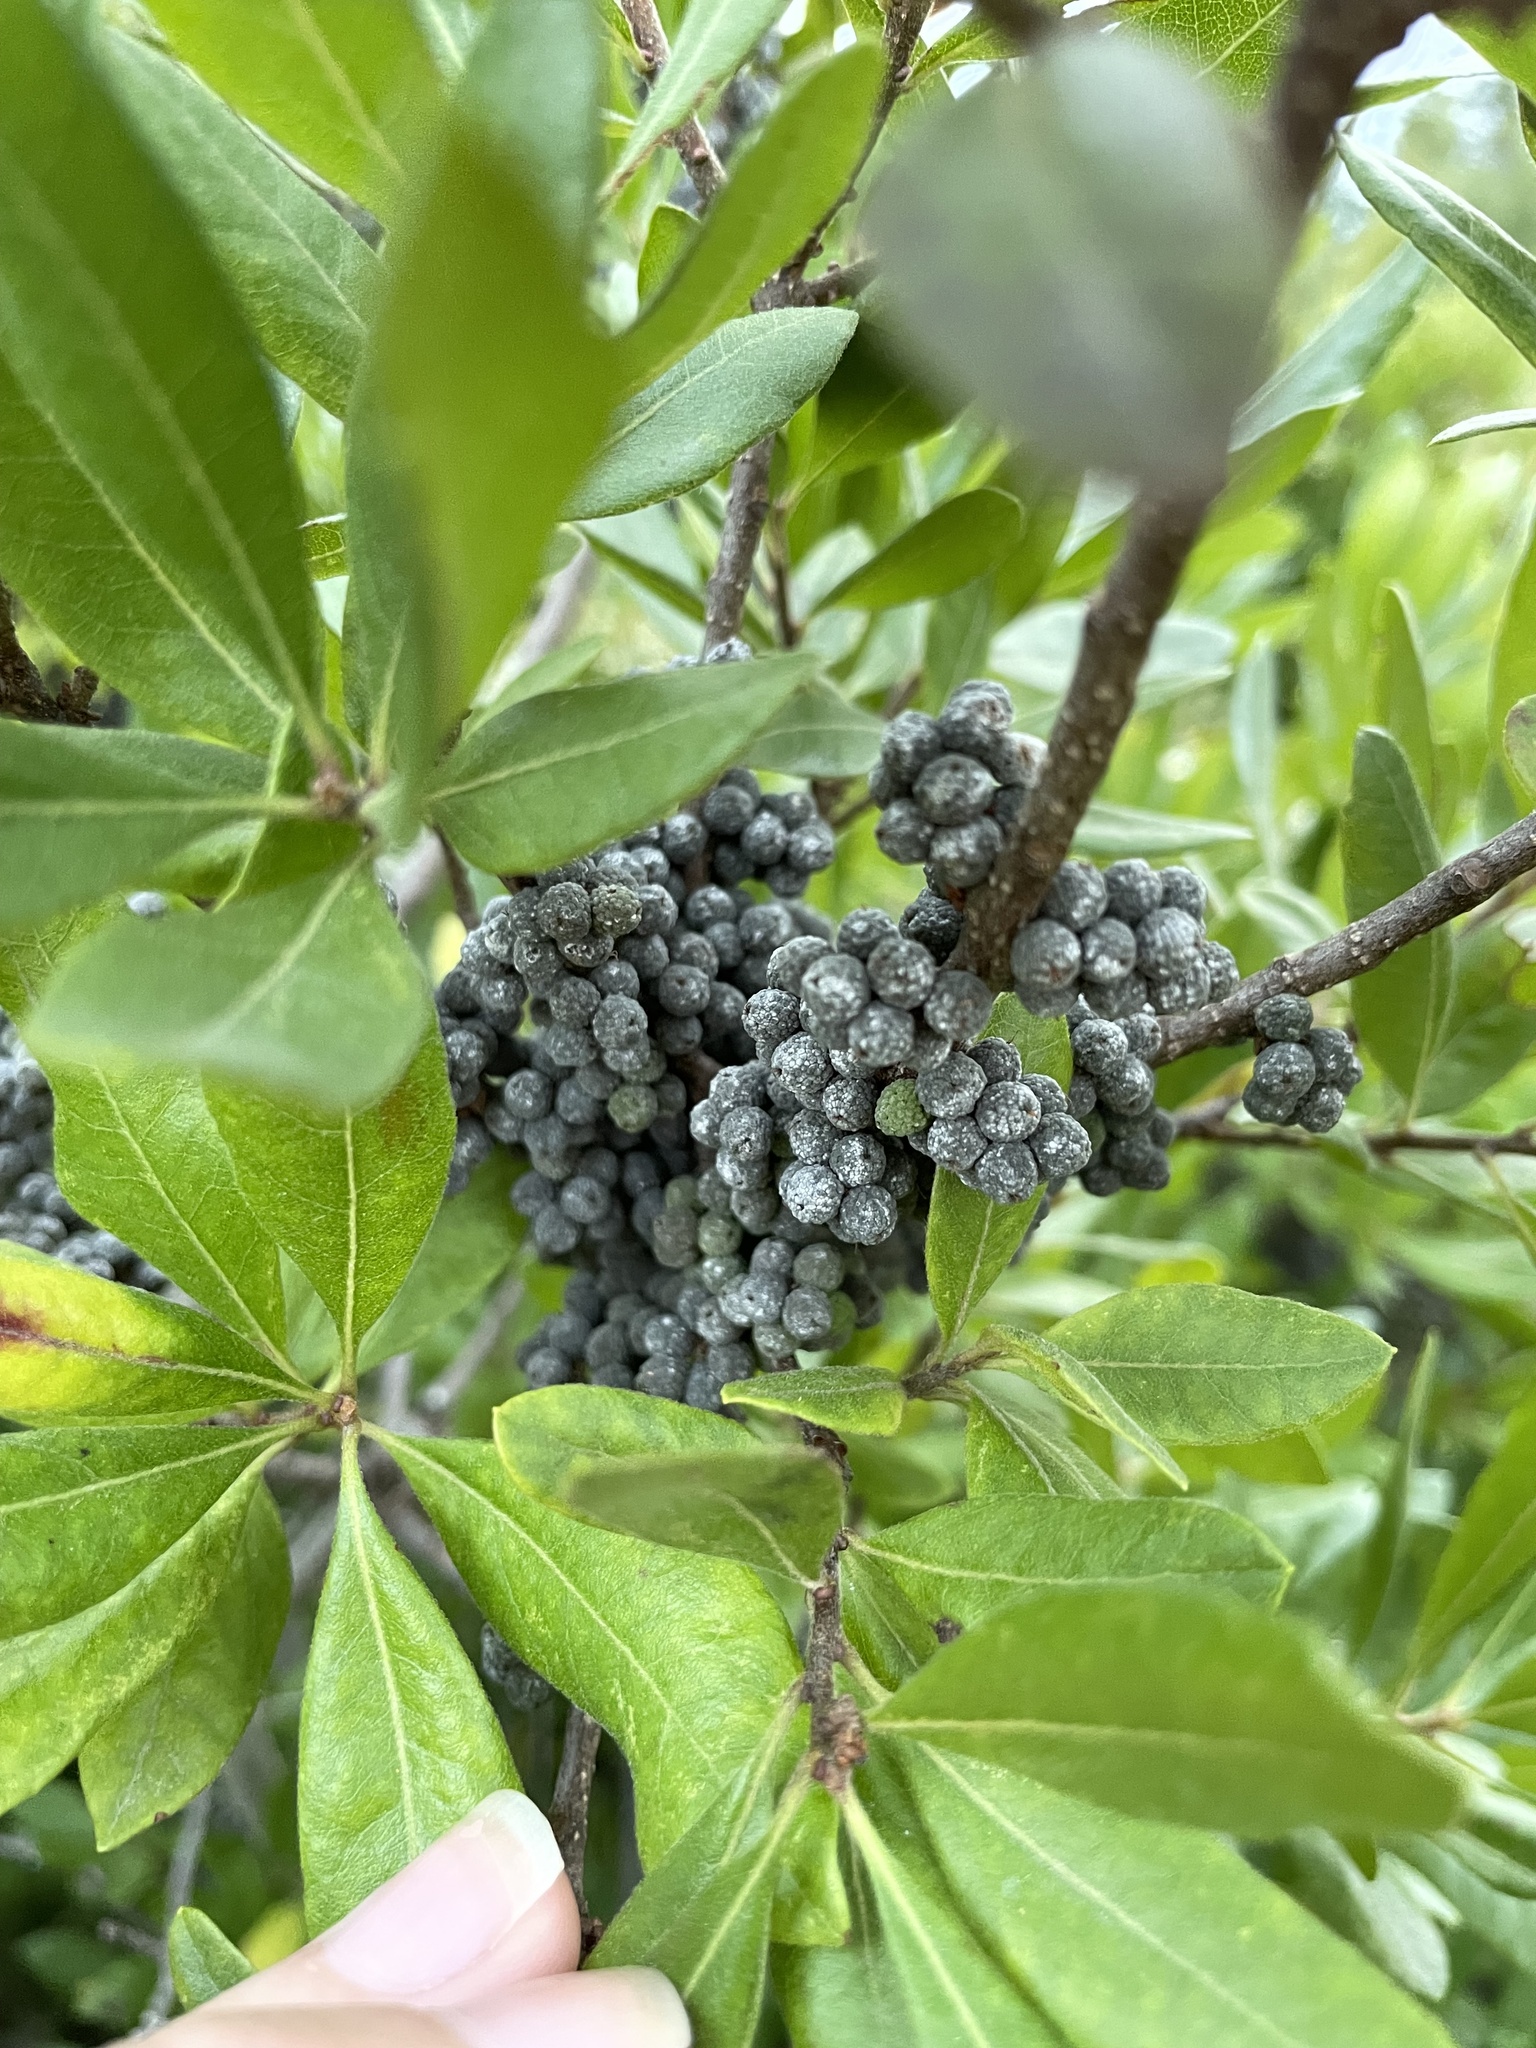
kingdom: Plantae
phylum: Tracheophyta
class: Magnoliopsida
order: Fagales
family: Myricaceae
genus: Morella
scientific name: Morella pensylvanica
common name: Northern bayberry
